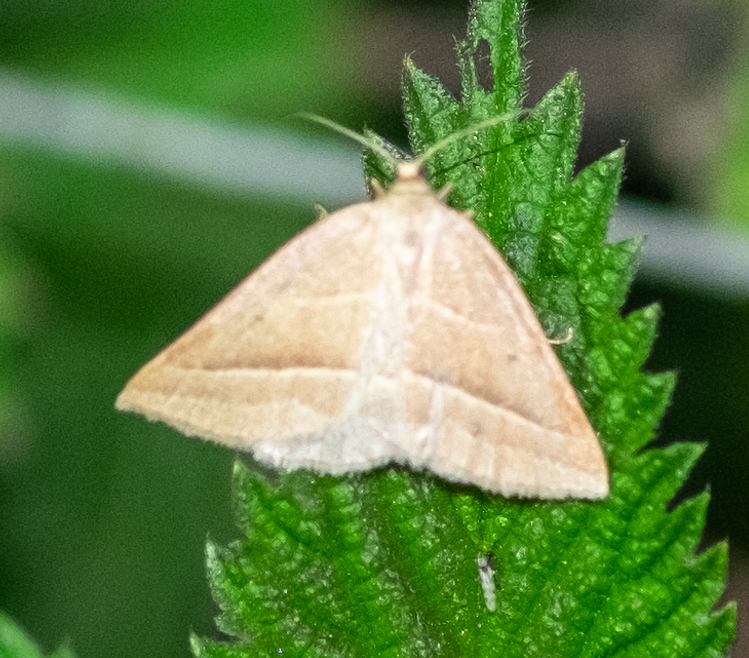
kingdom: Animalia
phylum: Arthropoda
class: Insecta
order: Lepidoptera
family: Pterophoridae
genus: Pterophorus
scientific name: Pterophorus Petrophora chlorosata
